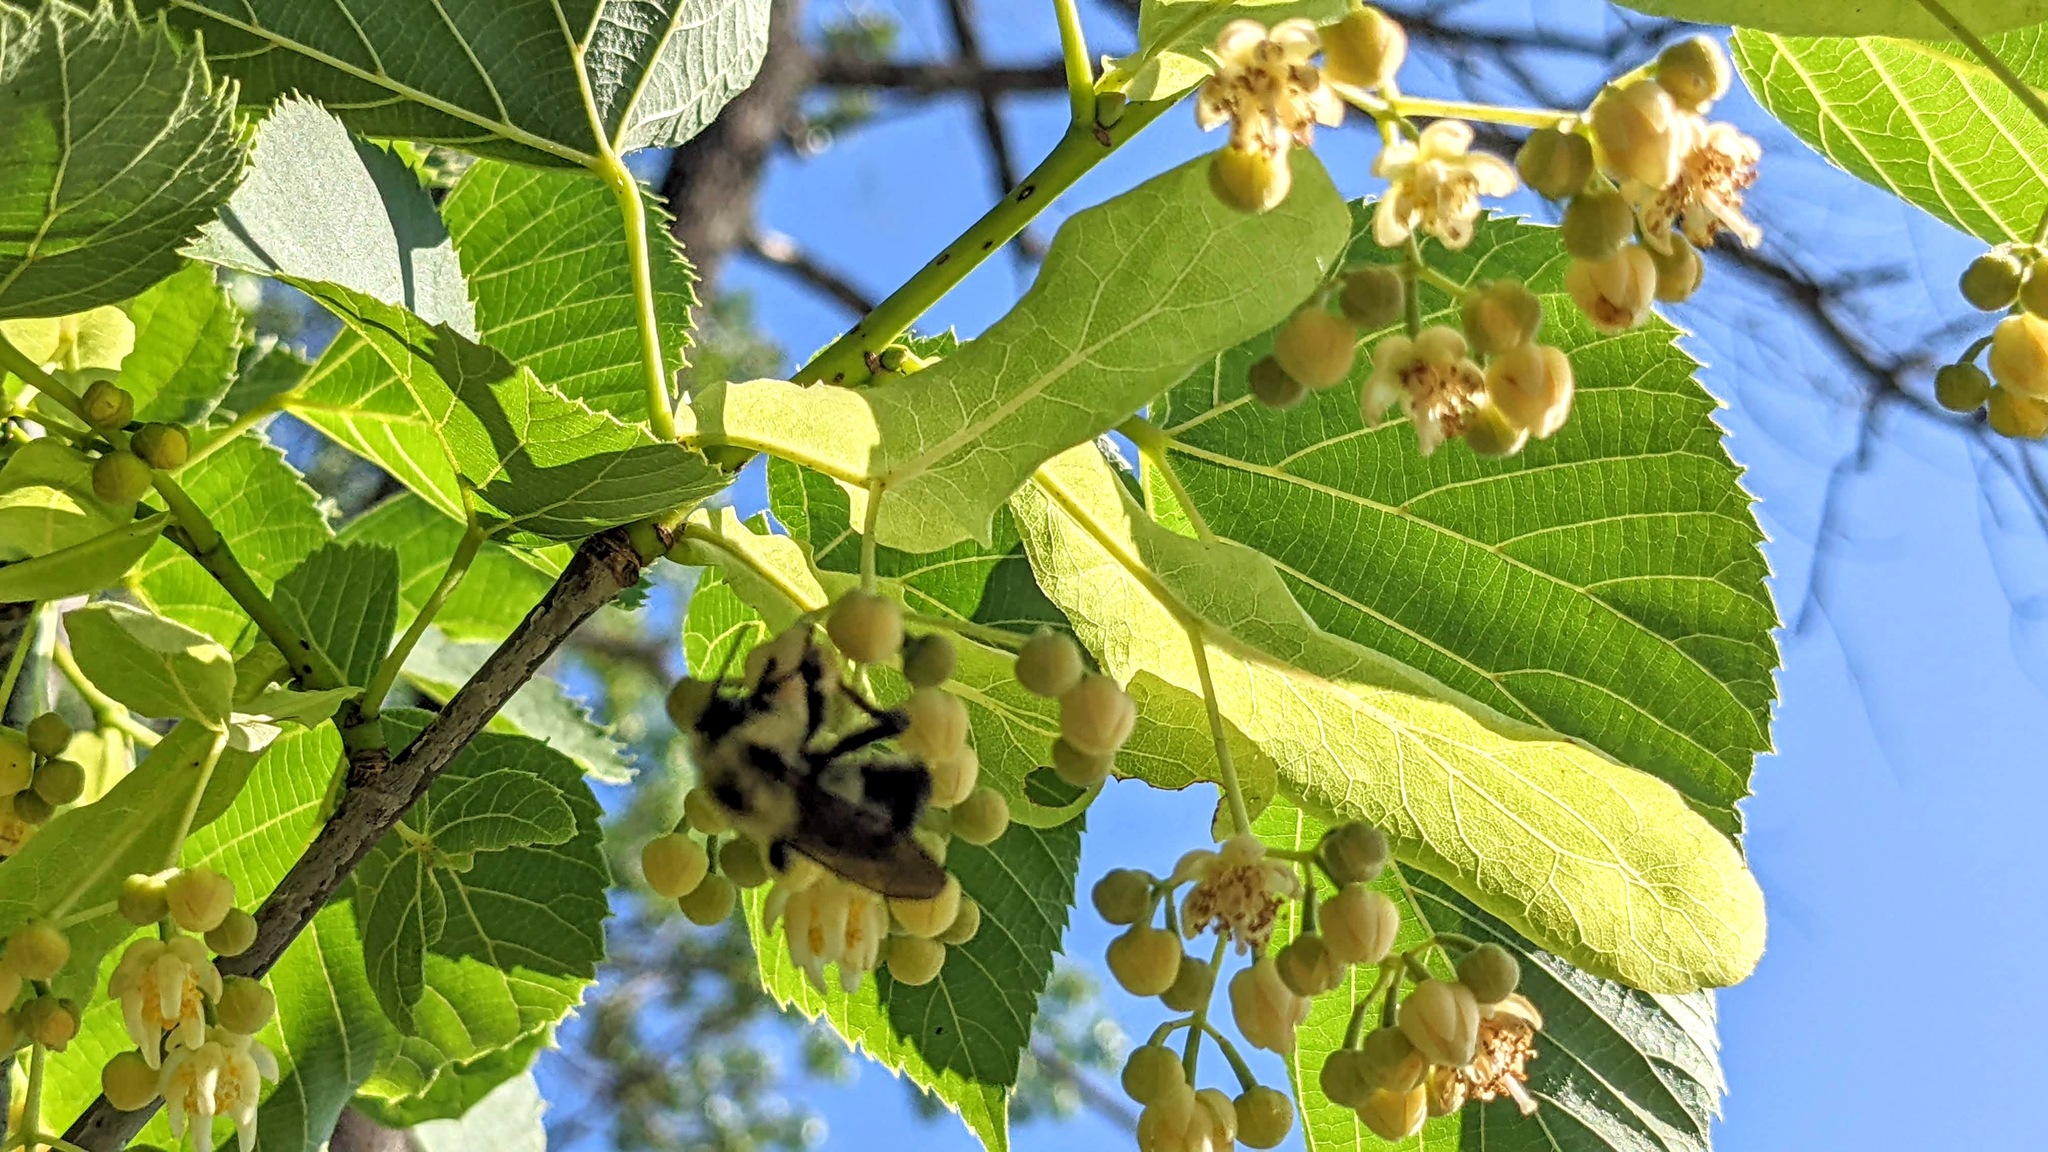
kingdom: Animalia
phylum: Arthropoda
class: Insecta
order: Hymenoptera
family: Apidae
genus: Bombus
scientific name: Bombus bimaculatus
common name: Two-spotted bumble bee
